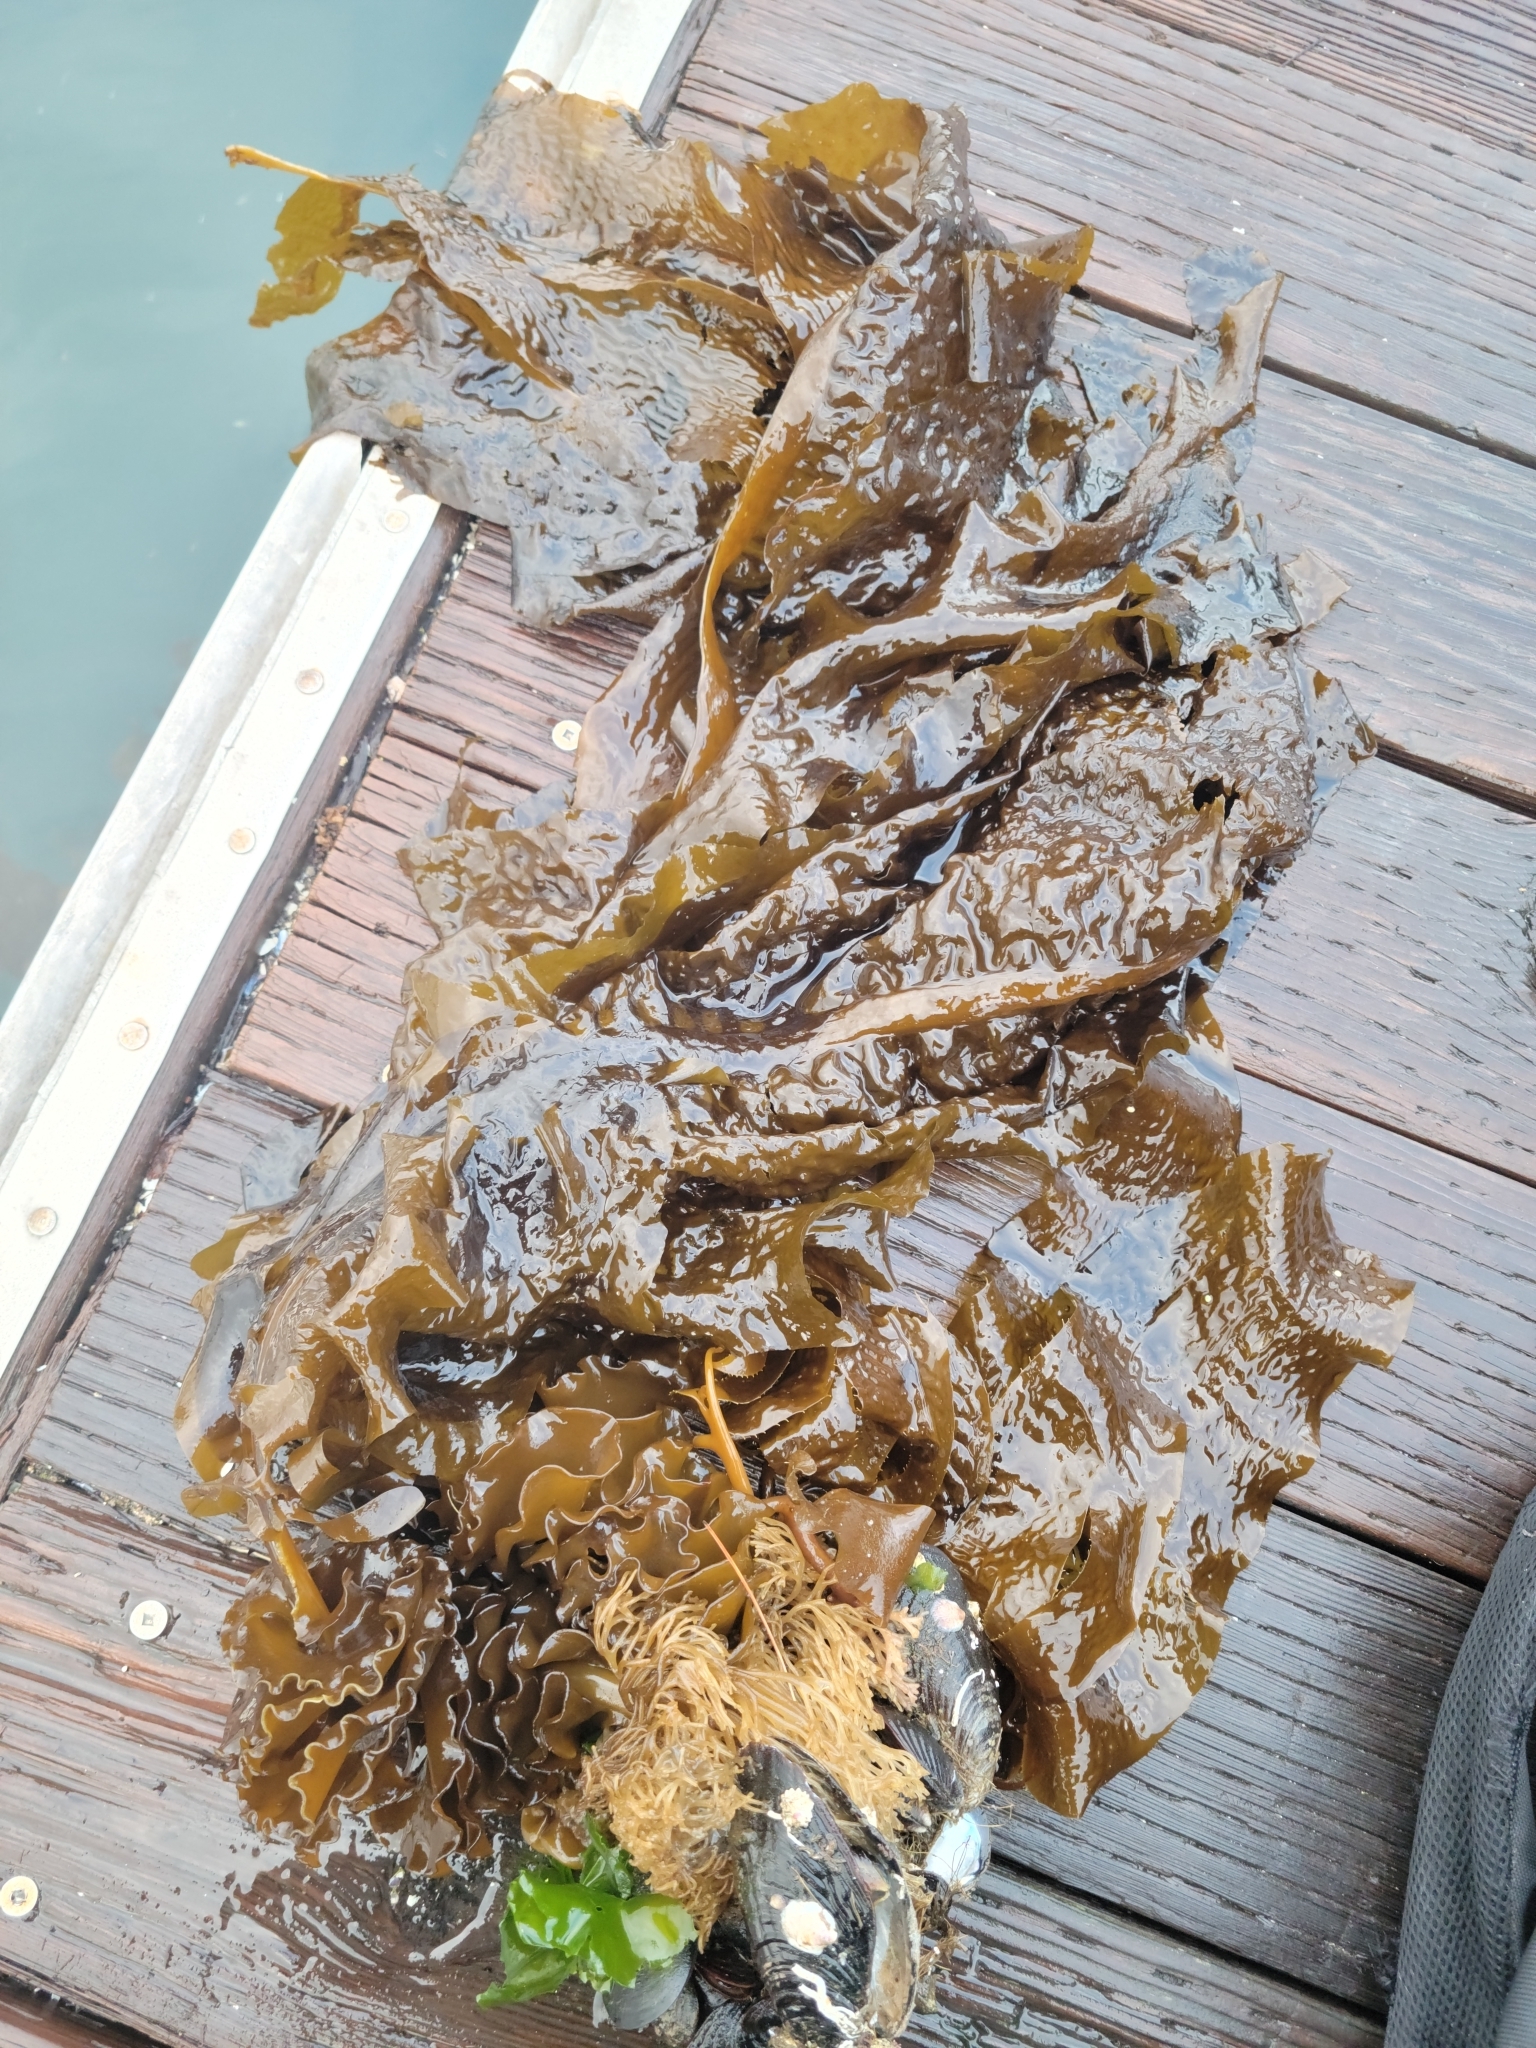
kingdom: Chromista
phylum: Ochrophyta
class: Phaeophyceae
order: Laminariales
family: Alariaceae
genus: Undaria
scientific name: Undaria pinnatifida
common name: Asian kelp
